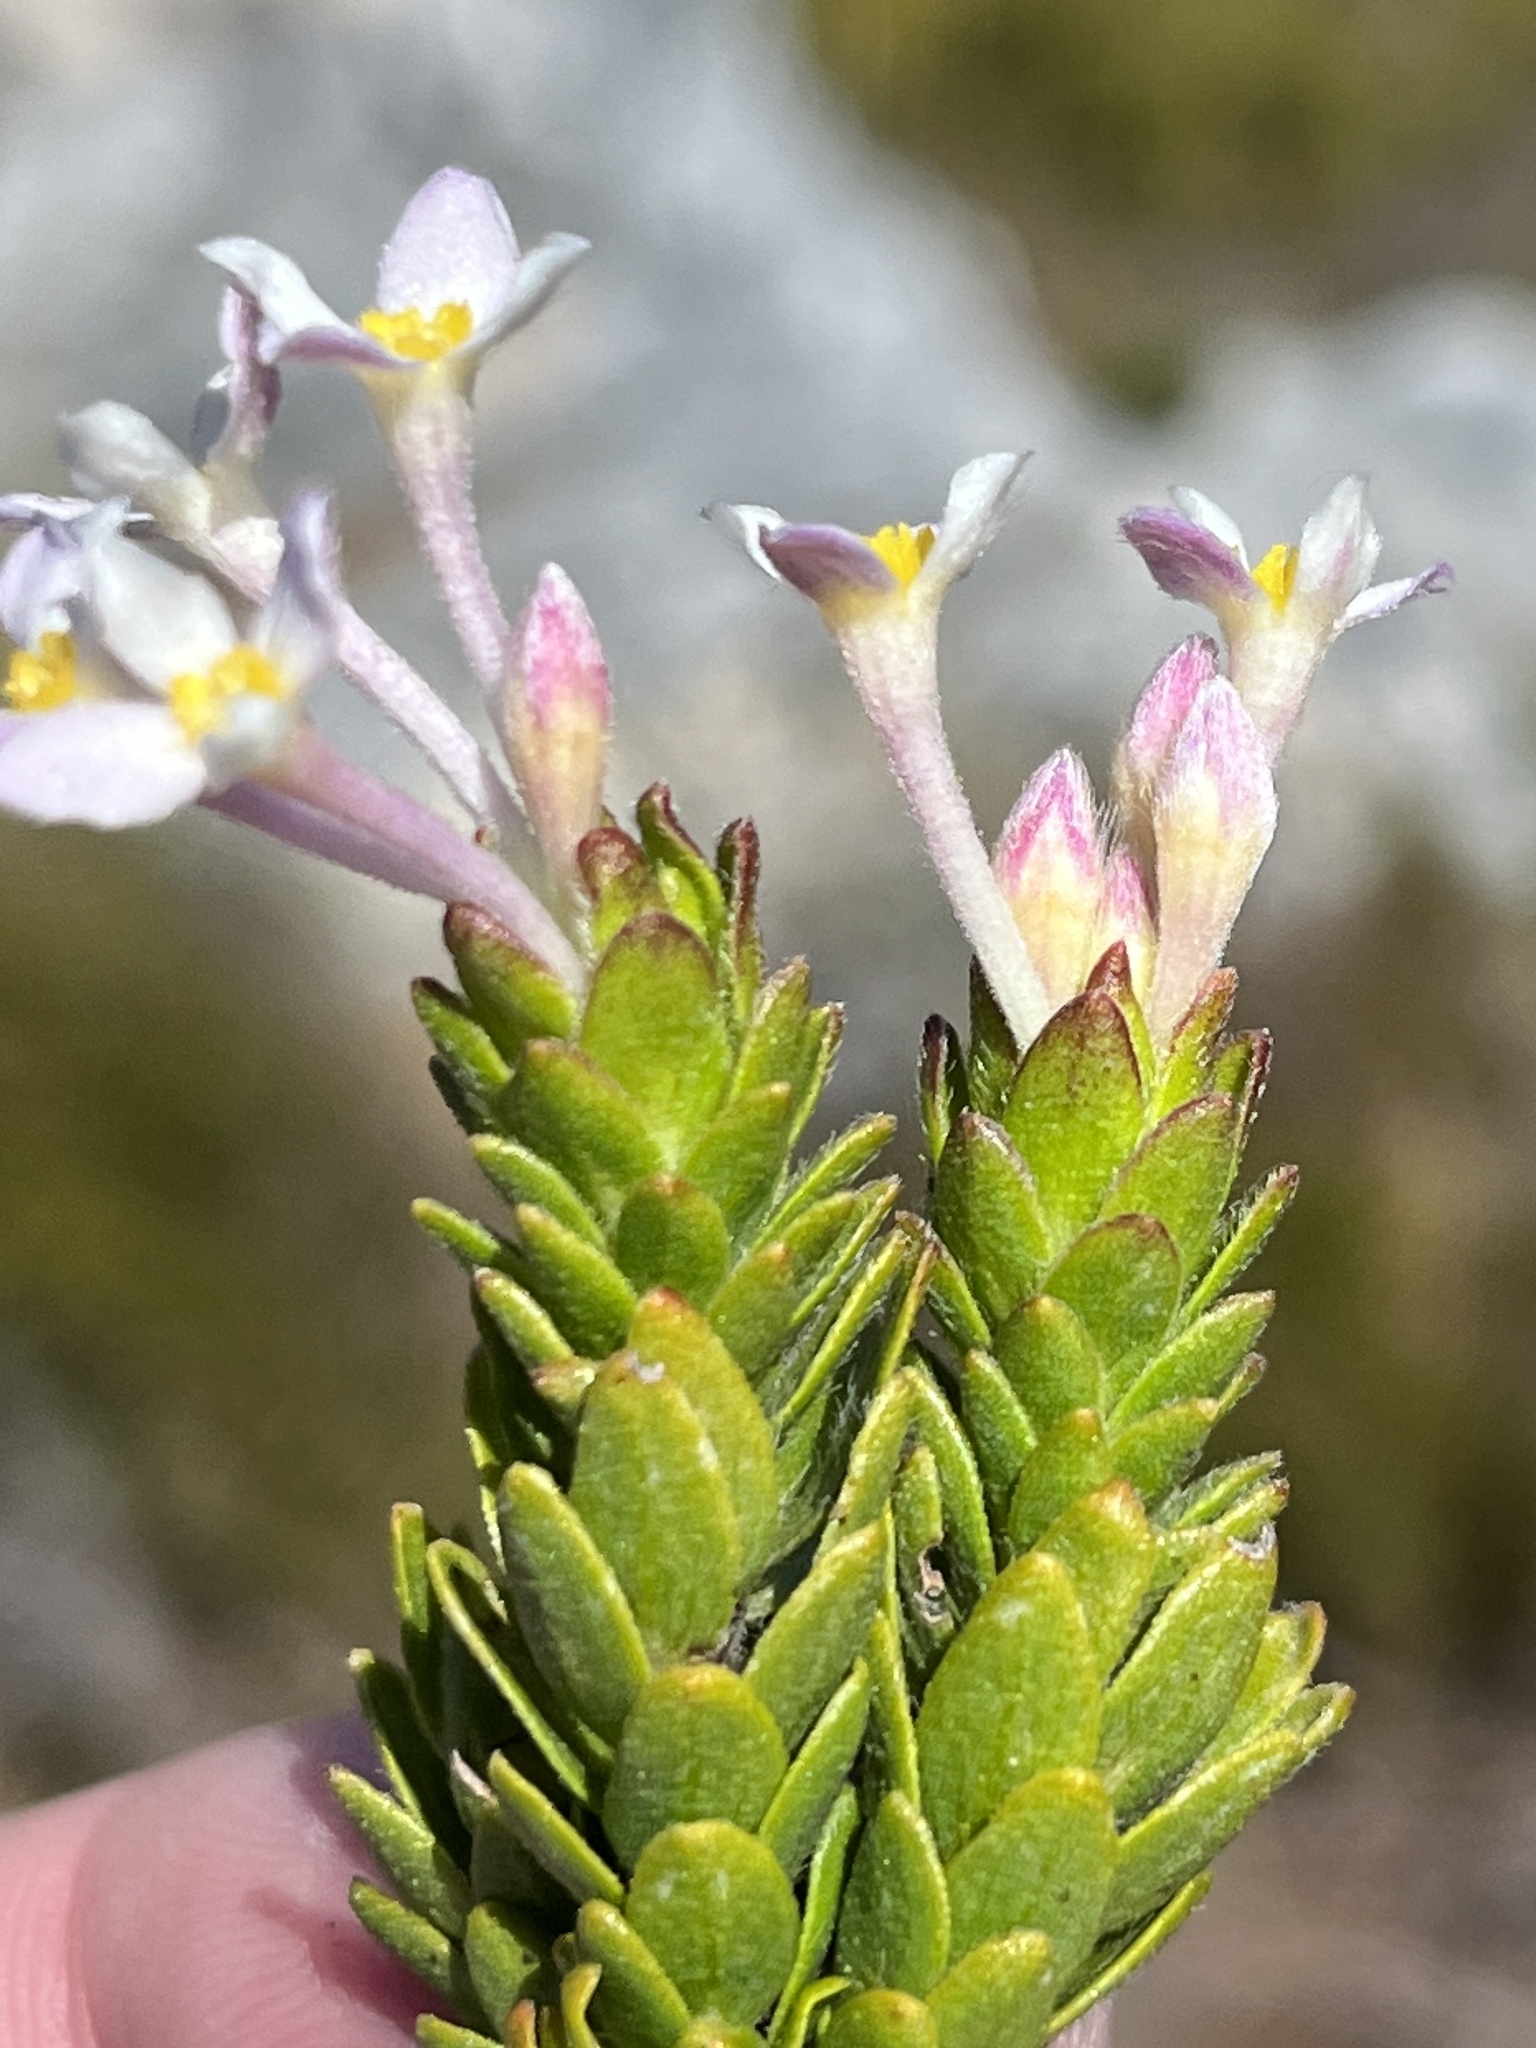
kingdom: Plantae
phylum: Tracheophyta
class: Magnoliopsida
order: Malvales
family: Thymelaeaceae
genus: Gnidia
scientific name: Gnidia tomentosa
